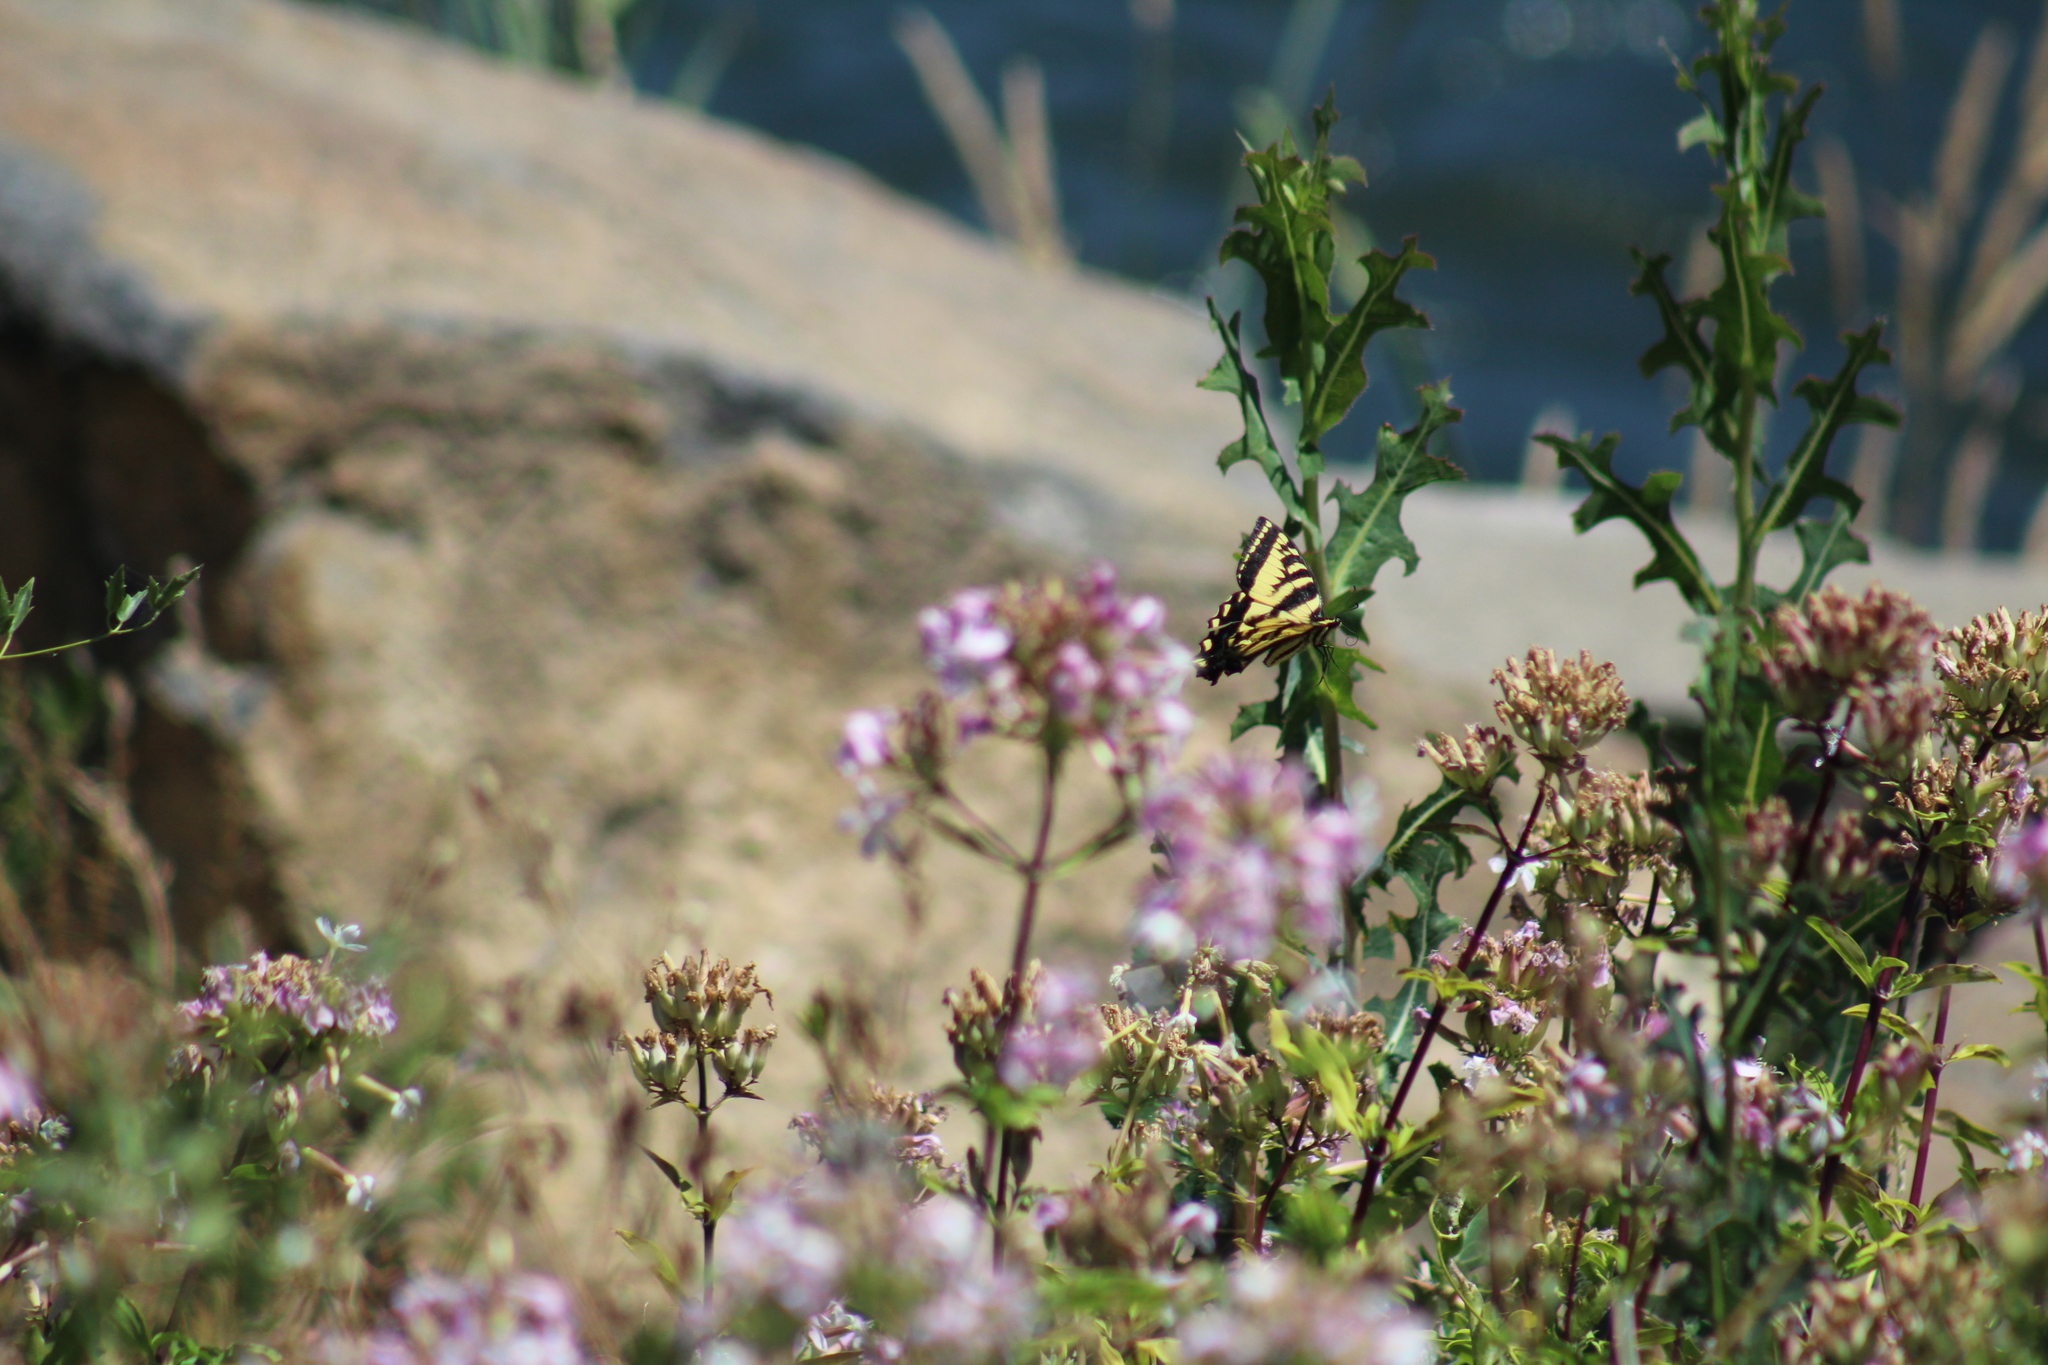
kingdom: Animalia
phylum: Arthropoda
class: Insecta
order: Lepidoptera
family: Papilionidae
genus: Papilio
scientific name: Papilio rutulus
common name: Western tiger swallowtail
